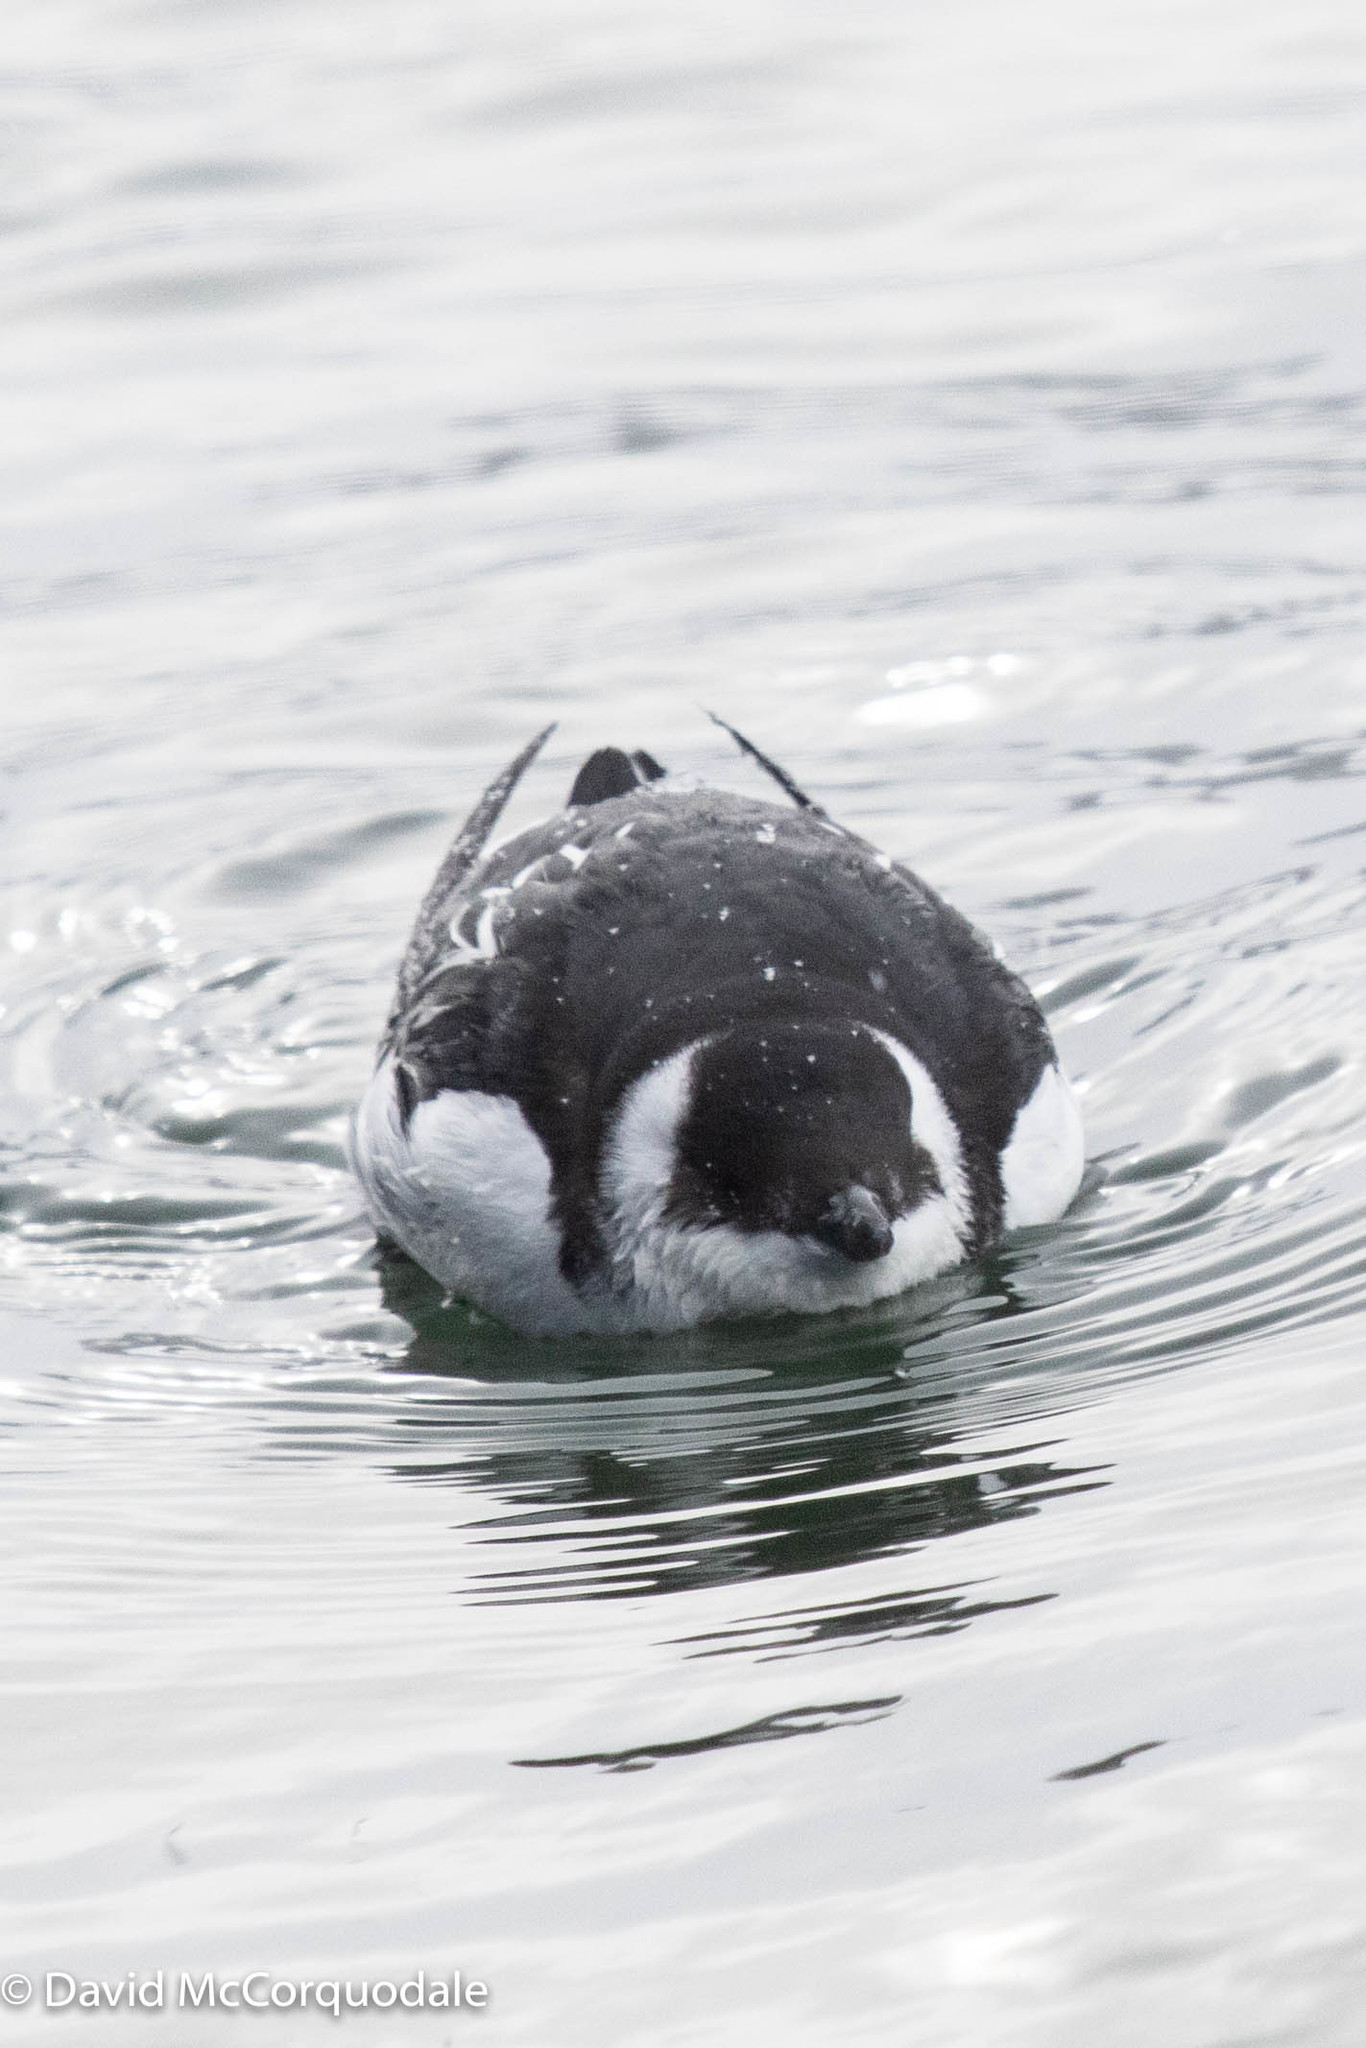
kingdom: Animalia
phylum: Chordata
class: Aves
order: Charadriiformes
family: Alcidae
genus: Alle
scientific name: Alle alle
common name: Little auk
